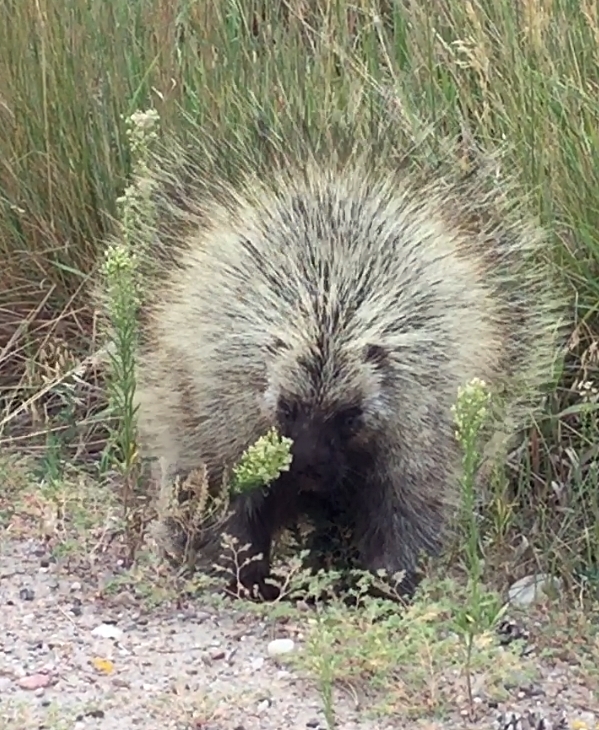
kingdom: Animalia
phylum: Chordata
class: Mammalia
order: Rodentia
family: Erethizontidae
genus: Erethizon
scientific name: Erethizon dorsatus
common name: North american porcupine
